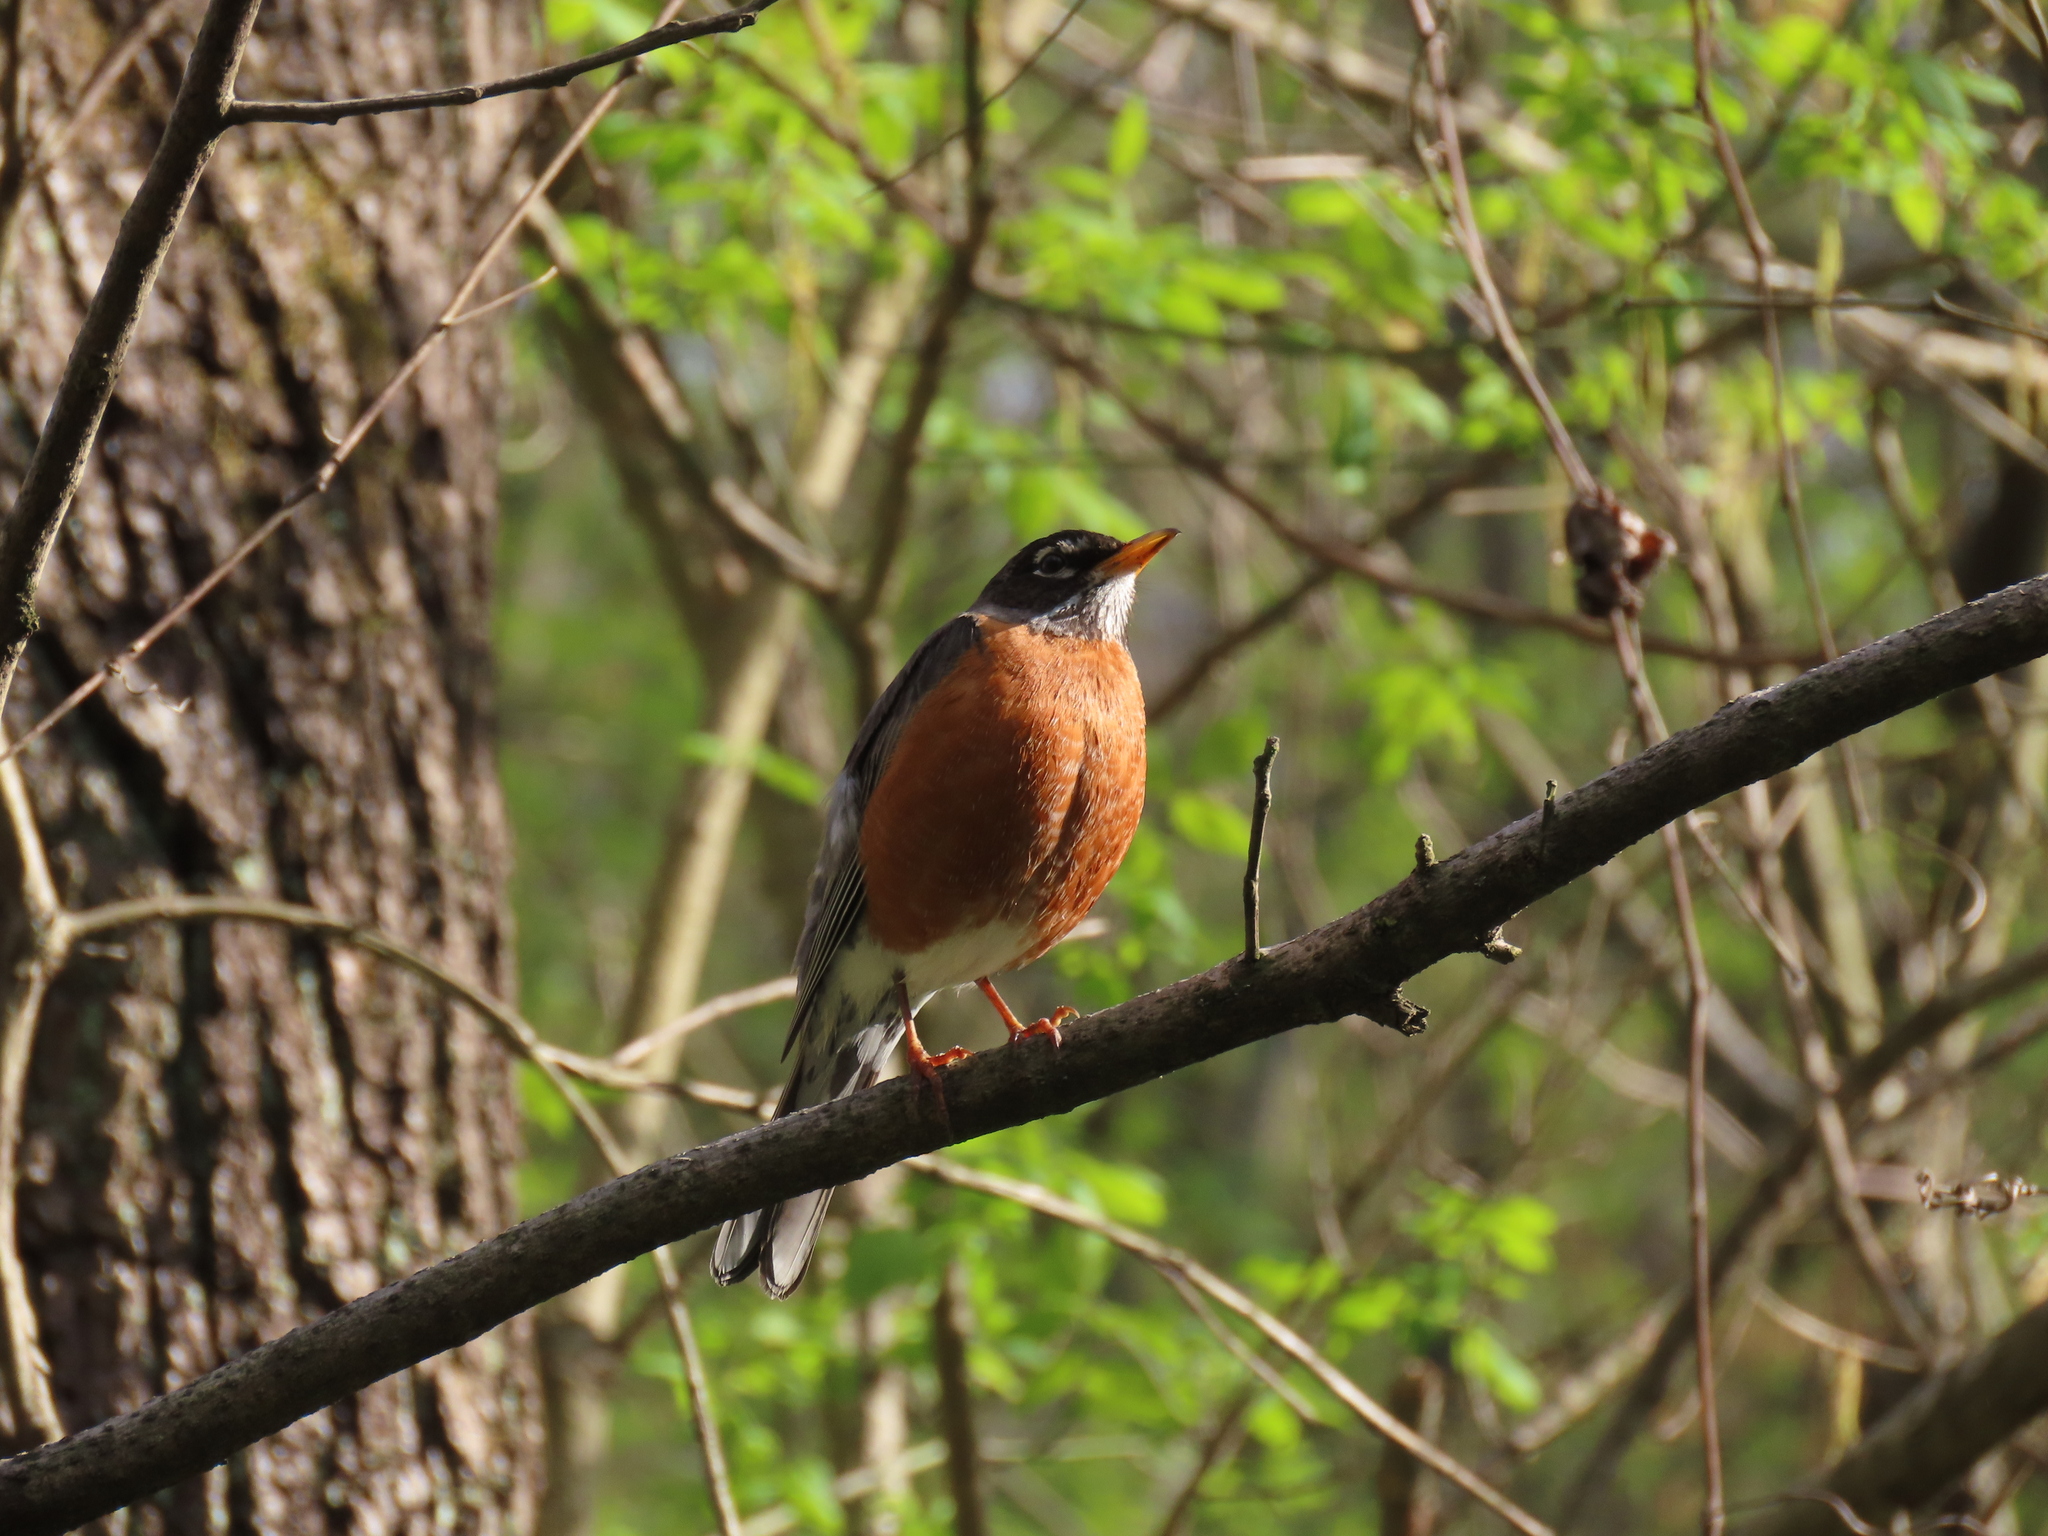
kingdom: Animalia
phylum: Chordata
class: Aves
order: Passeriformes
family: Turdidae
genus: Turdus
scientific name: Turdus migratorius
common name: American robin
